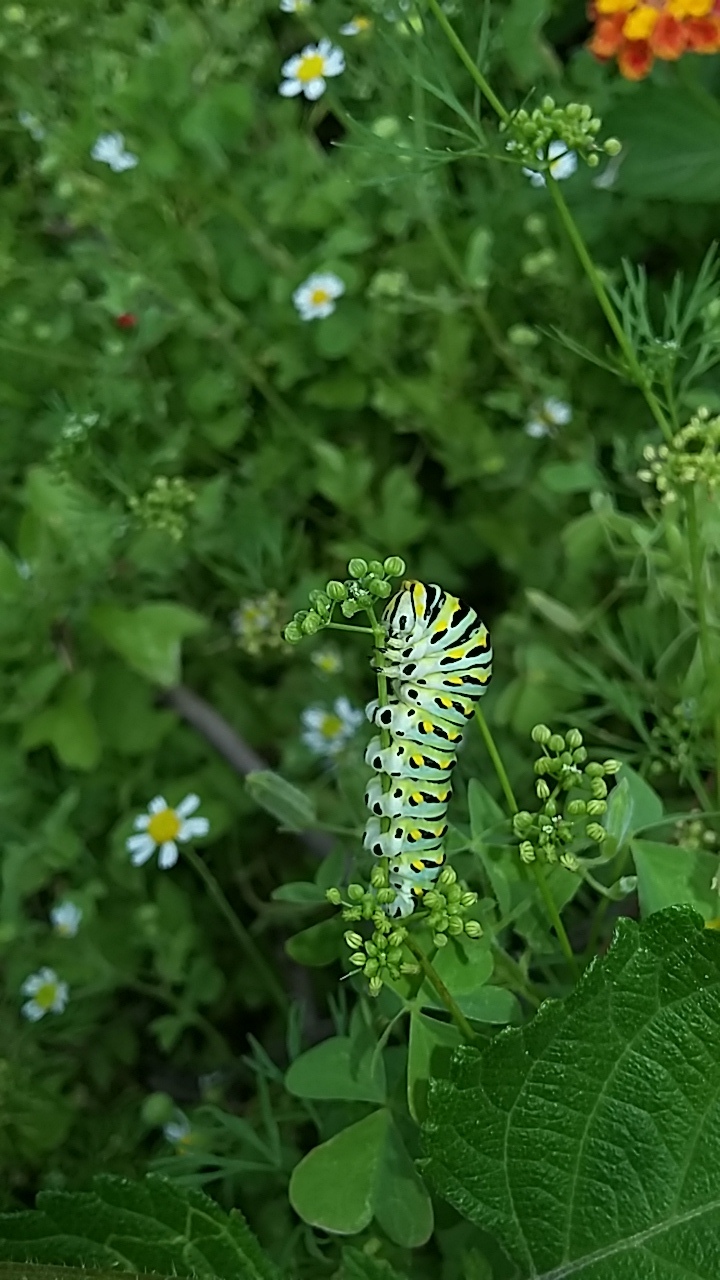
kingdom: Animalia
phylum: Arthropoda
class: Insecta
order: Lepidoptera
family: Papilionidae
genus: Papilio
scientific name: Papilio polyxenes
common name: Black swallowtail
